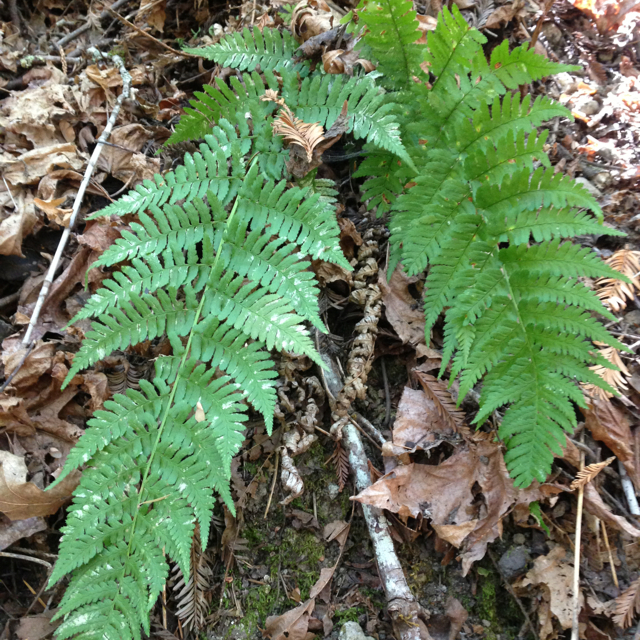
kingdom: Plantae
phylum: Tracheophyta
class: Polypodiopsida
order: Polypodiales
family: Dryopteridaceae
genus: Dryopteris
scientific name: Dryopteris arguta
